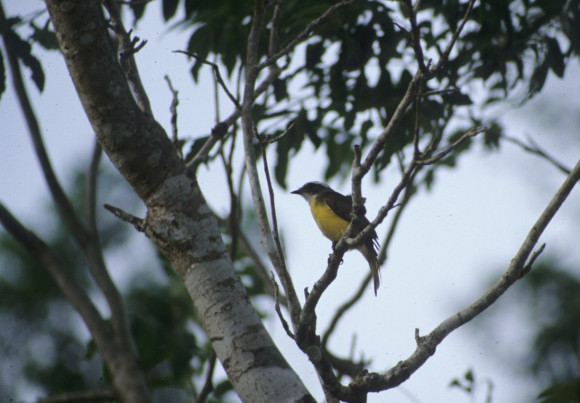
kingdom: Animalia
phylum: Chordata
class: Aves
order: Passeriformes
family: Tyrannidae
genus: Myiozetetes
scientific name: Myiozetetes similis
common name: Social flycatcher
